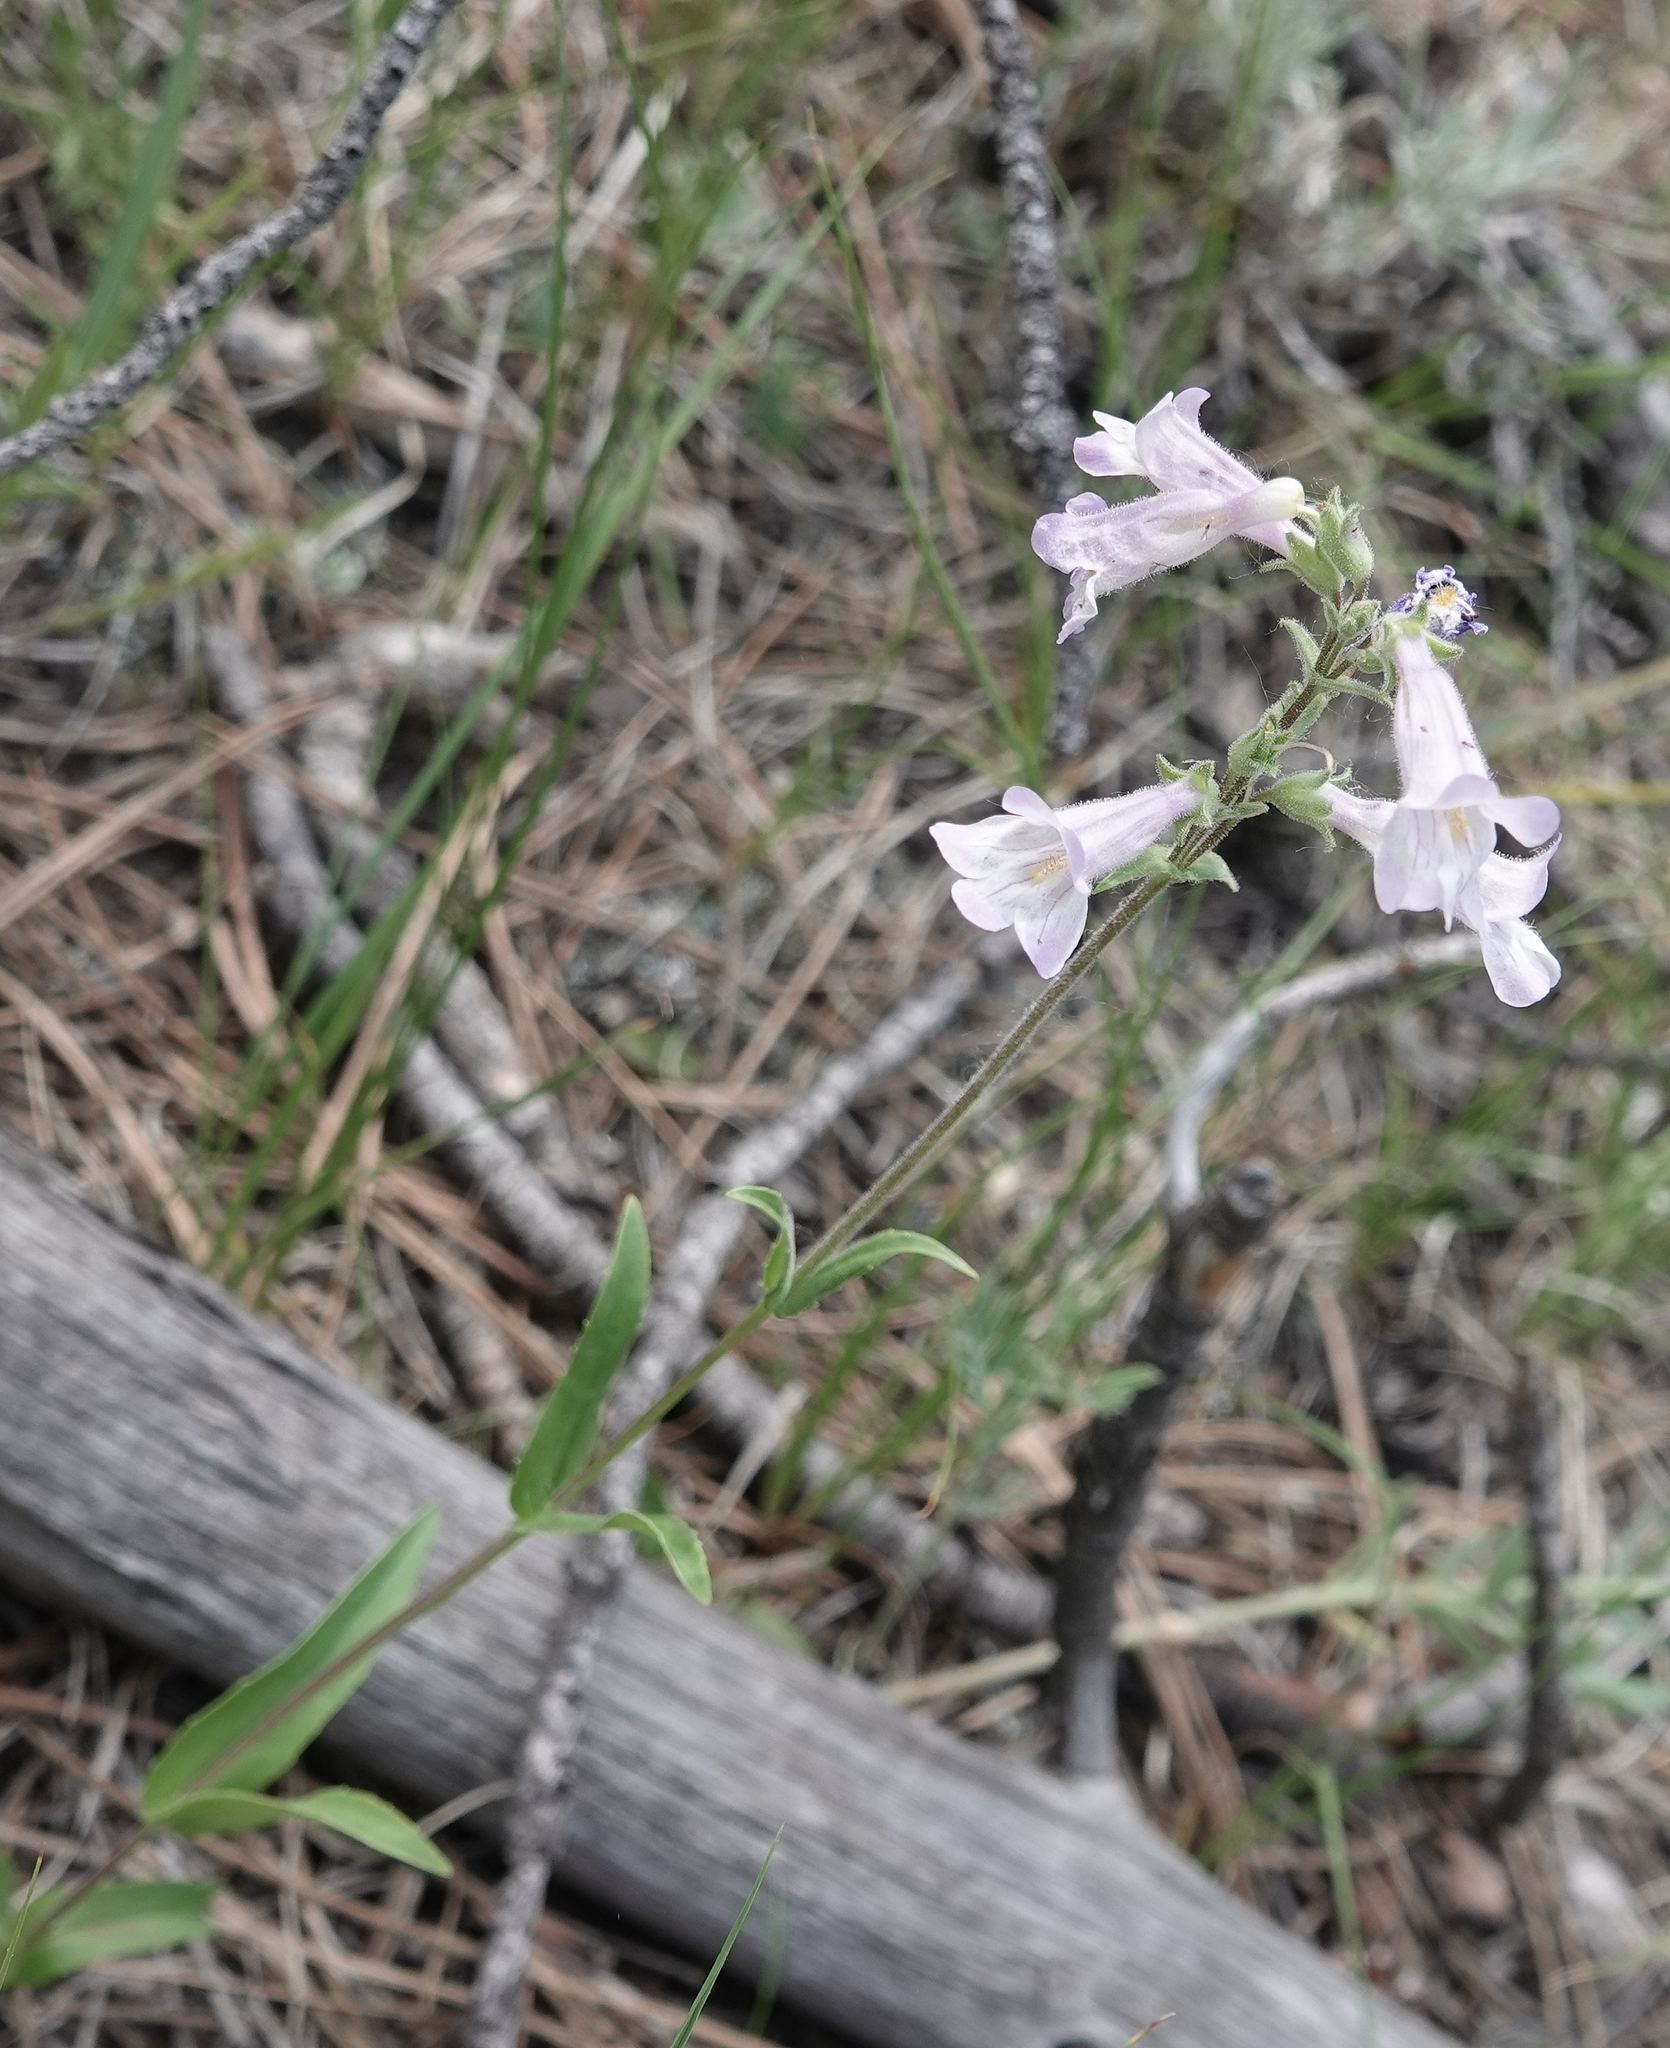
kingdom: Plantae
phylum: Tracheophyta
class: Magnoliopsida
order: Lamiales
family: Plantaginaceae
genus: Penstemon
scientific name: Penstemon gracilis
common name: Slender beardtongue
